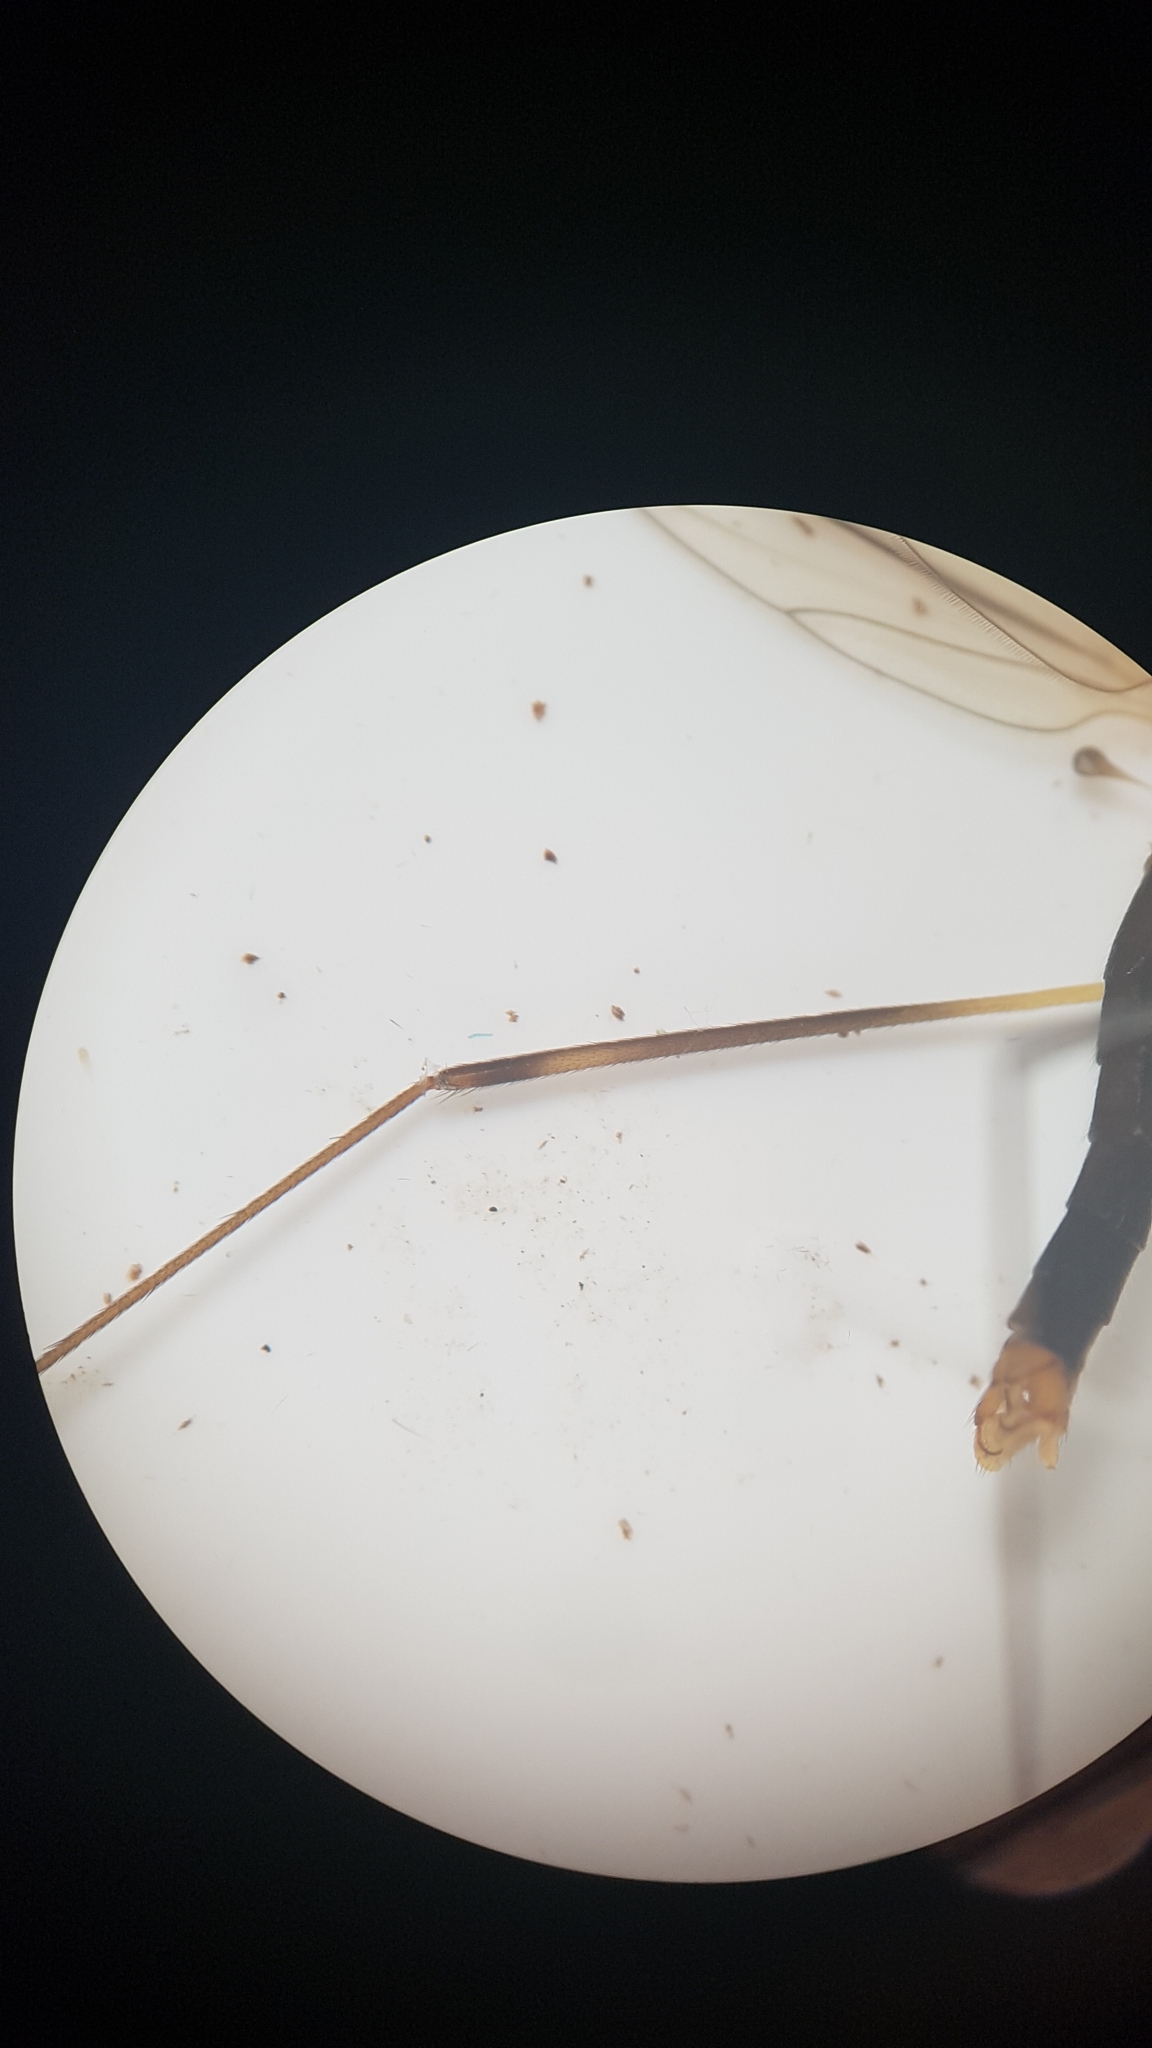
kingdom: Animalia
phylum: Arthropoda
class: Insecta
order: Diptera
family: Limoniidae
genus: Dicranomyia
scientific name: Dicranomyia cubitalis
